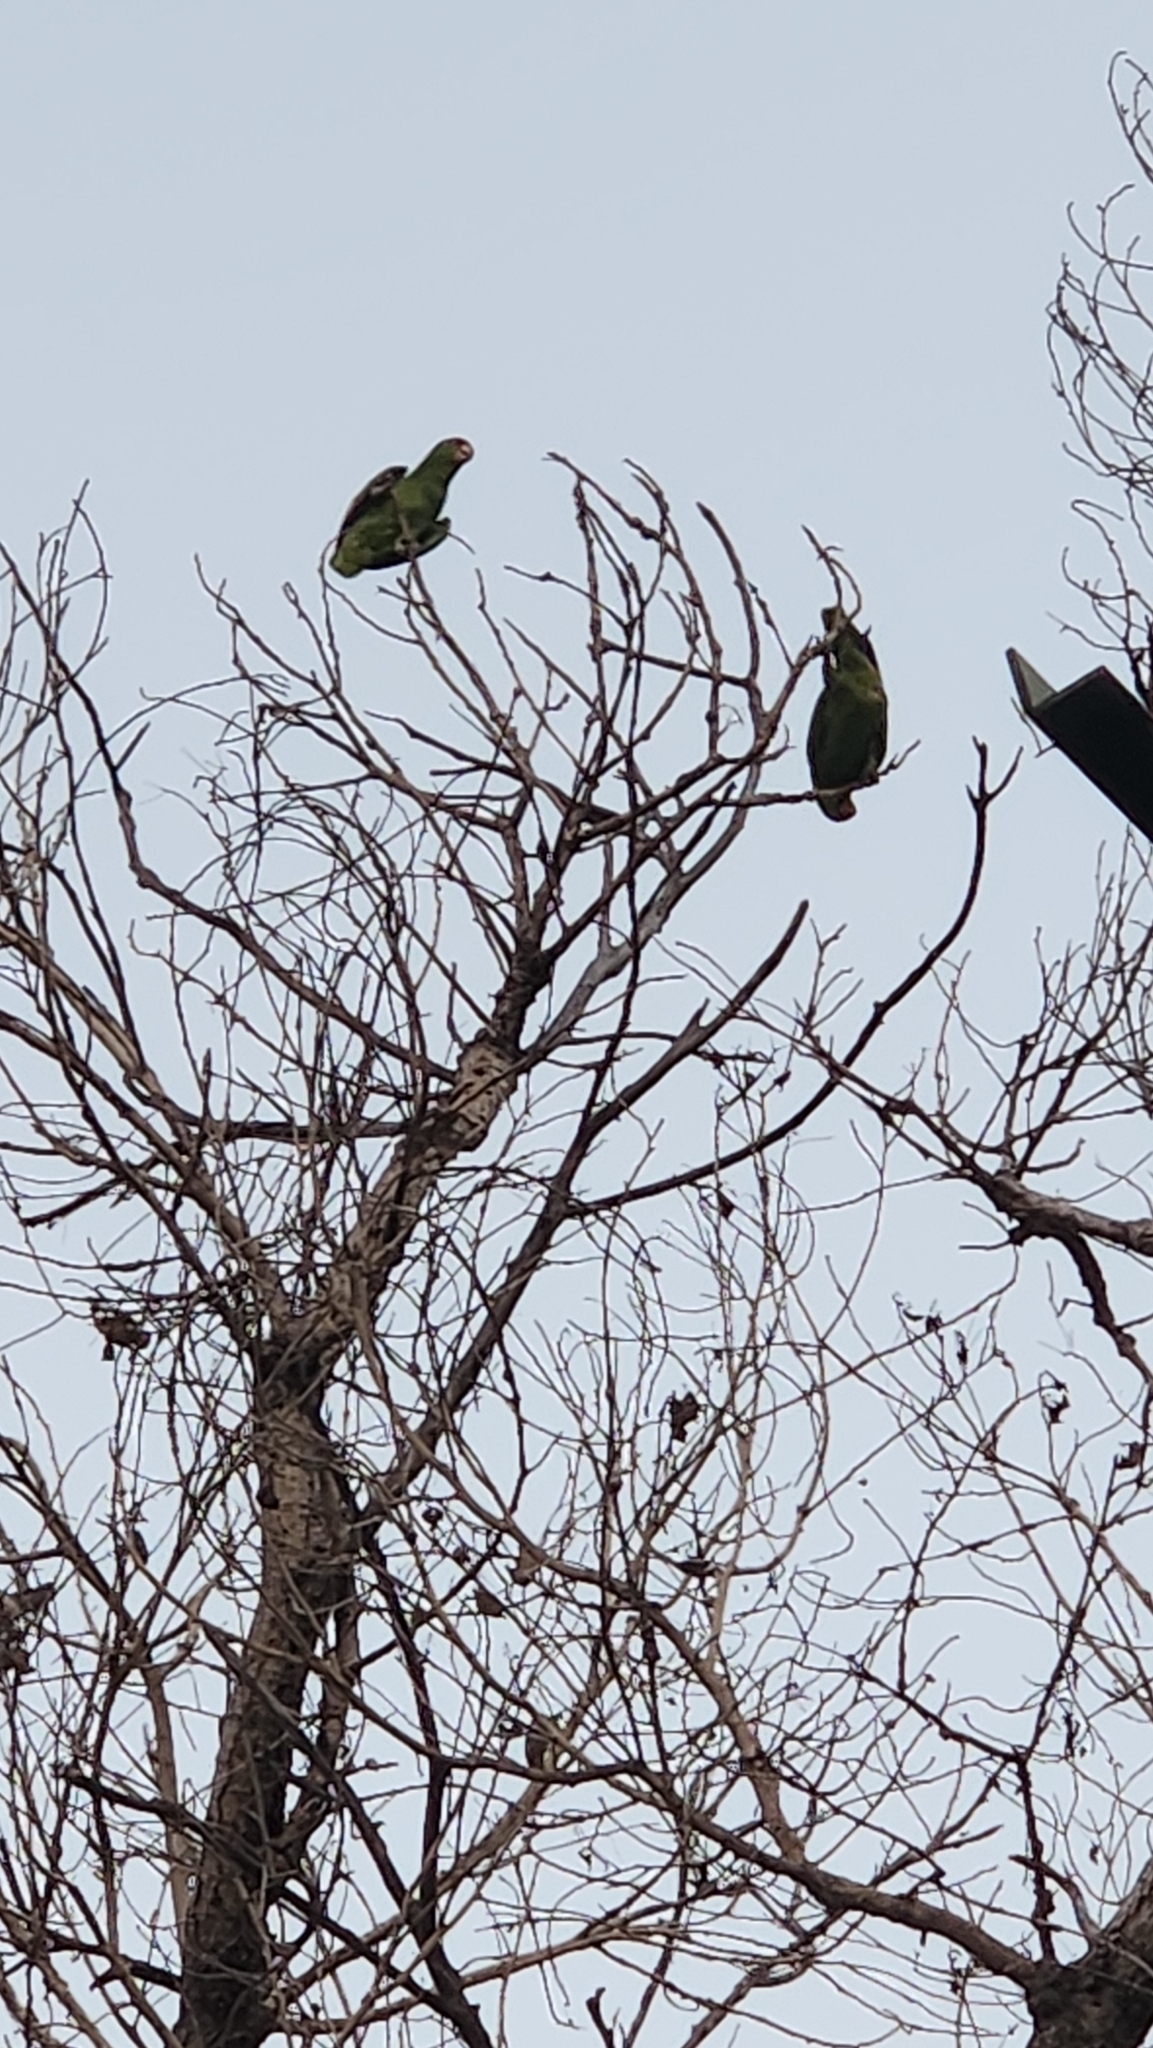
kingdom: Animalia
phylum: Chordata
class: Aves
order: Psittaciformes
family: Psittacidae
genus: Amazona
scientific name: Amazona
